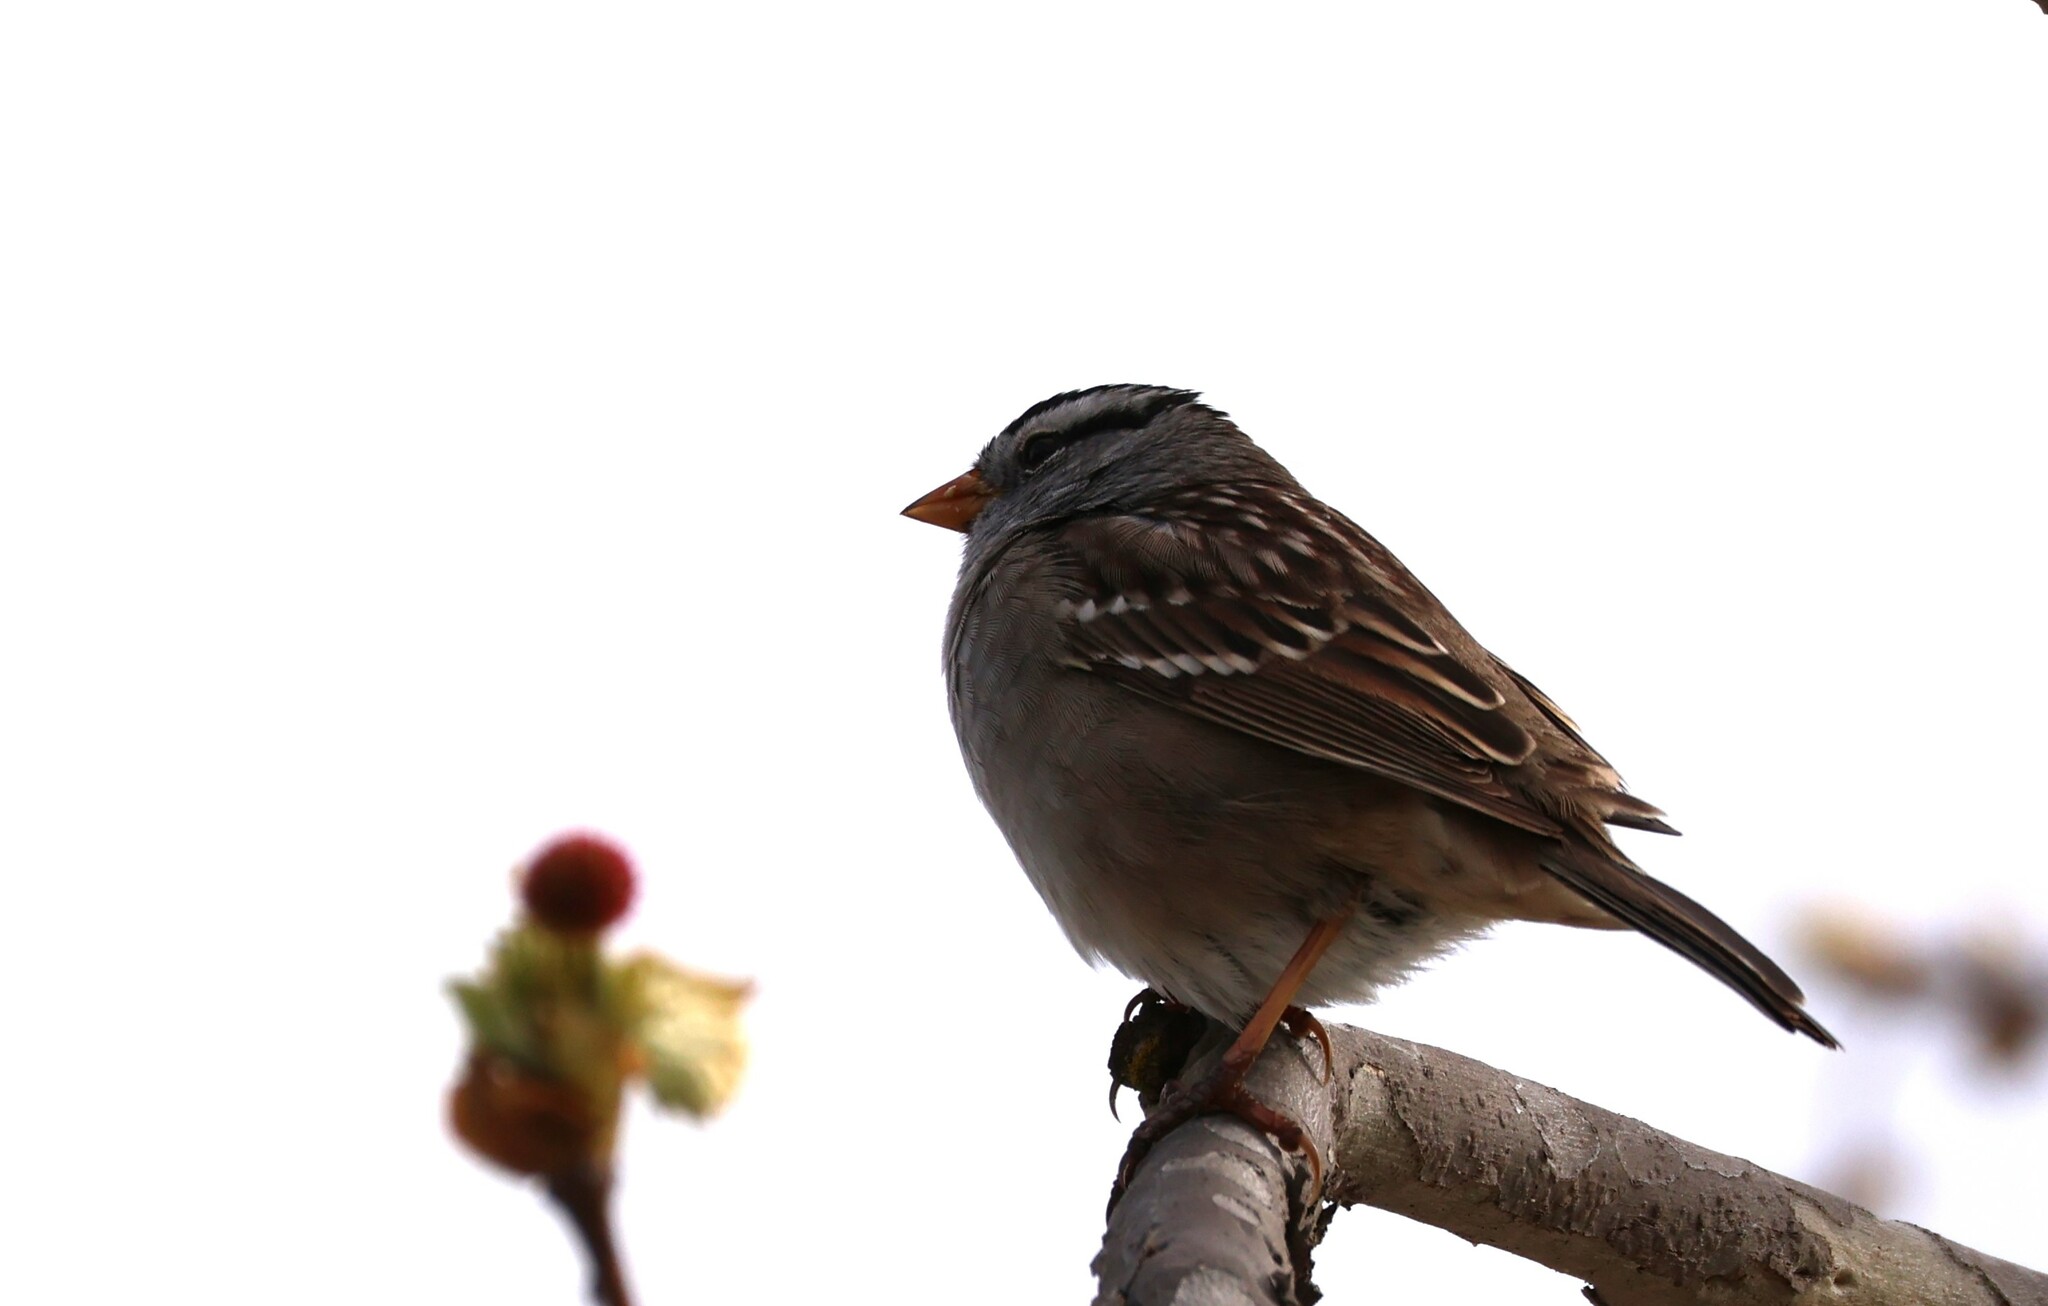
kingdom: Animalia
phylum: Chordata
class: Aves
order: Passeriformes
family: Passerellidae
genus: Zonotrichia
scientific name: Zonotrichia leucophrys
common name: White-crowned sparrow
